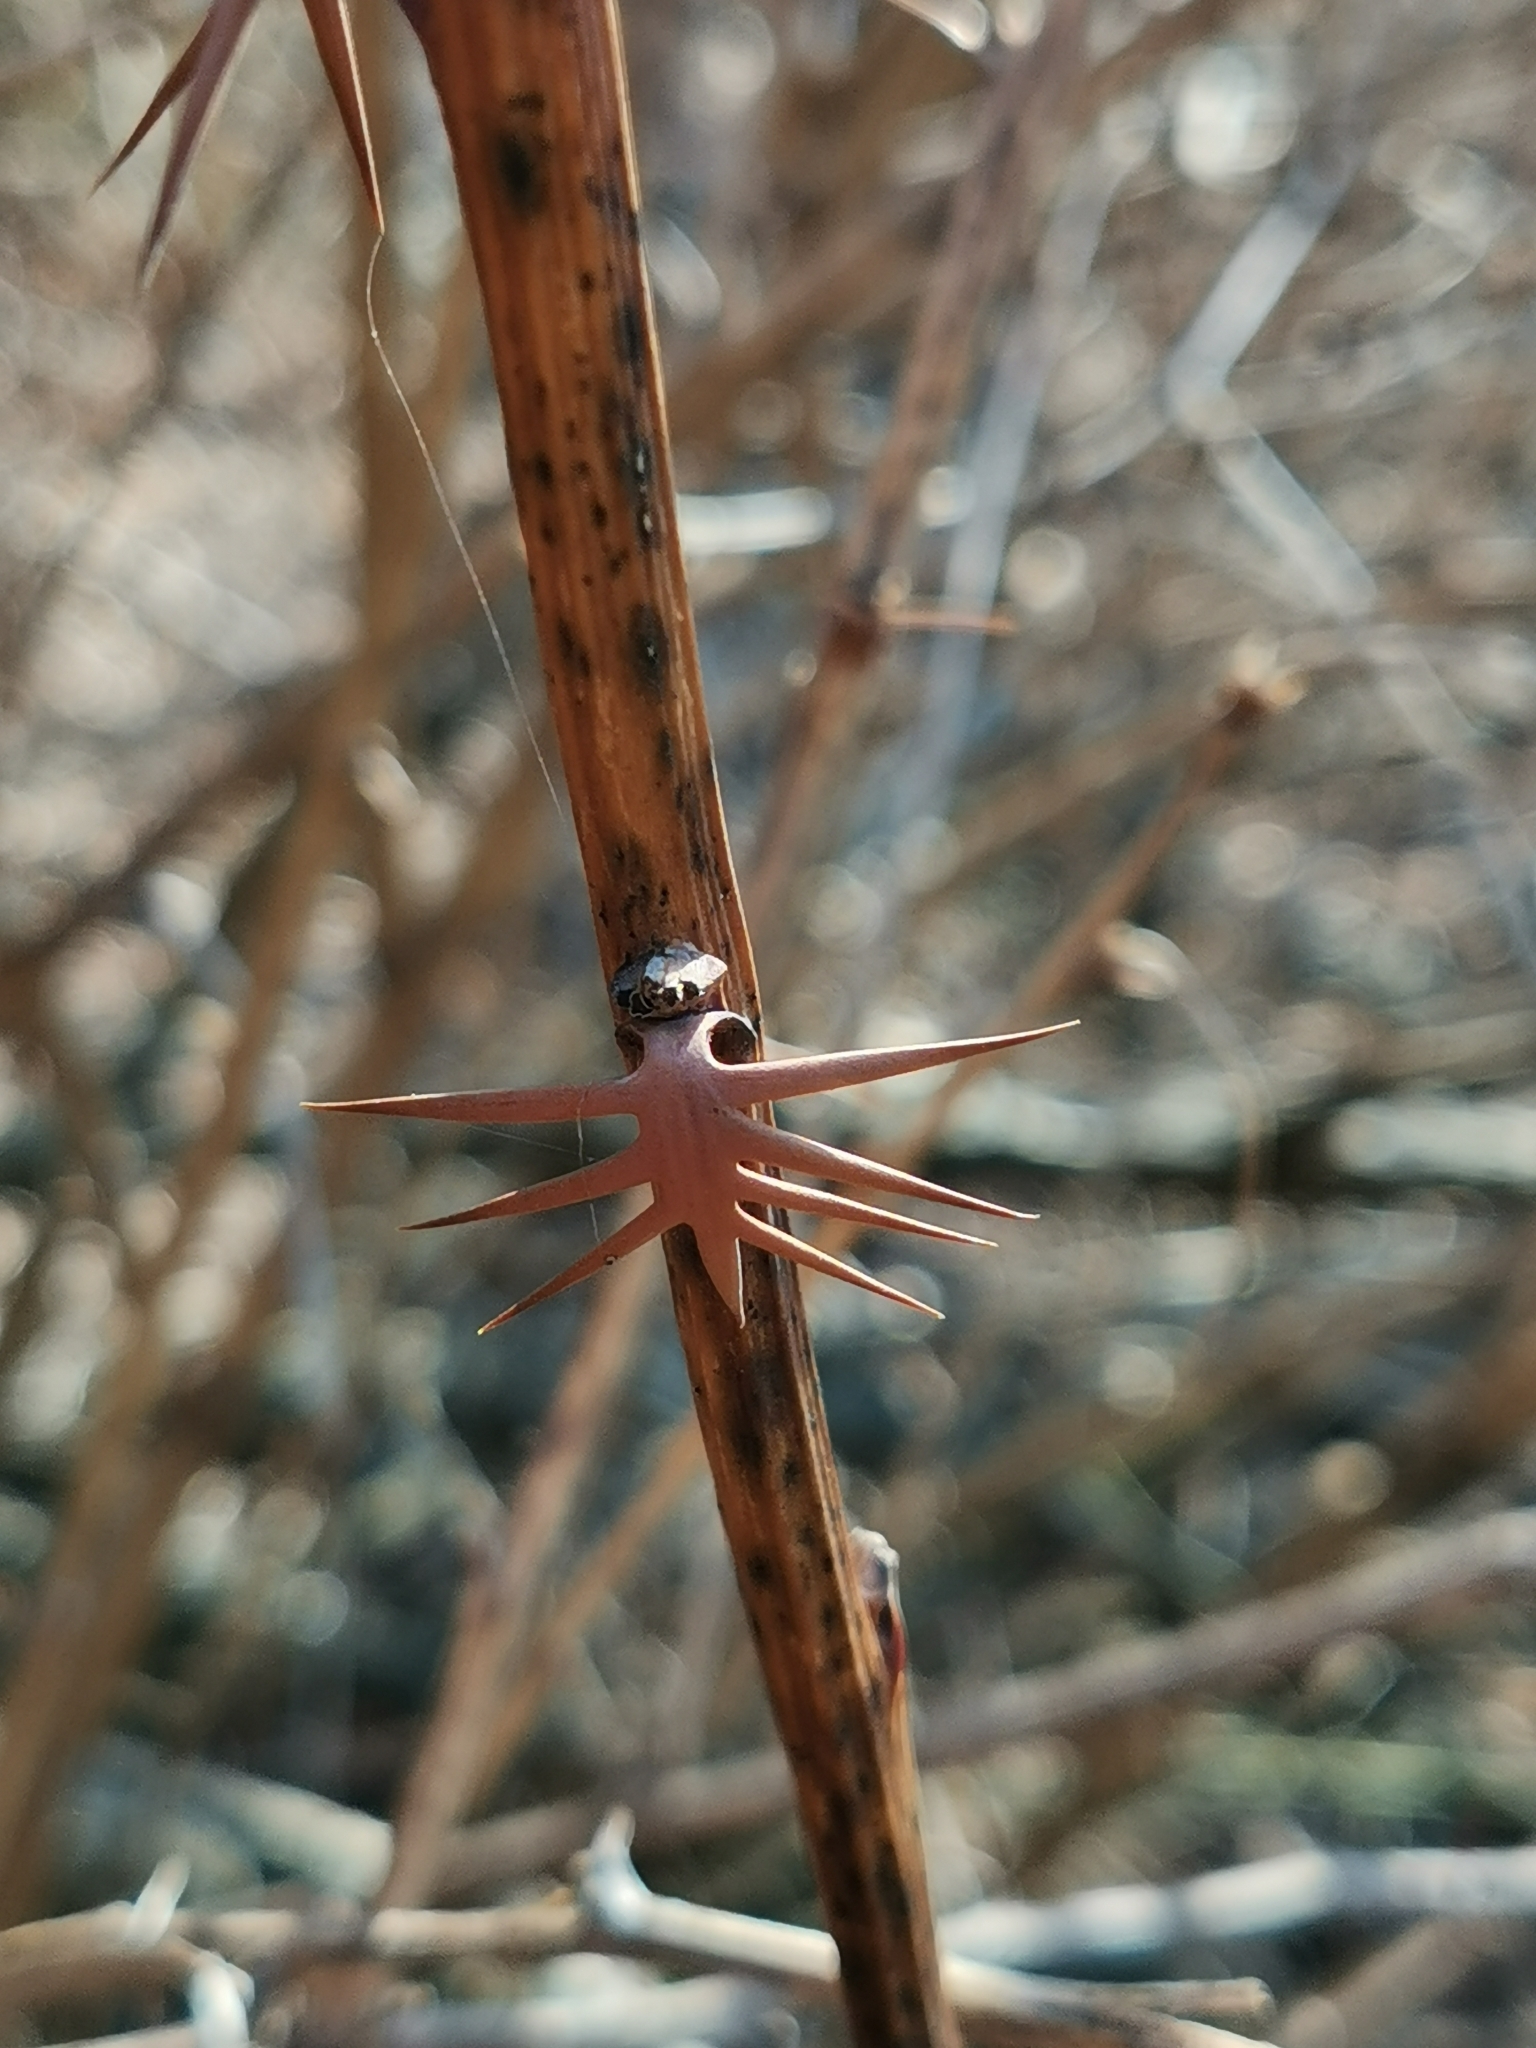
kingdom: Plantae
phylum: Tracheophyta
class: Magnoliopsida
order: Ranunculales
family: Berberidaceae
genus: Berberis
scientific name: Berberis vulgaris
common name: Barberry
